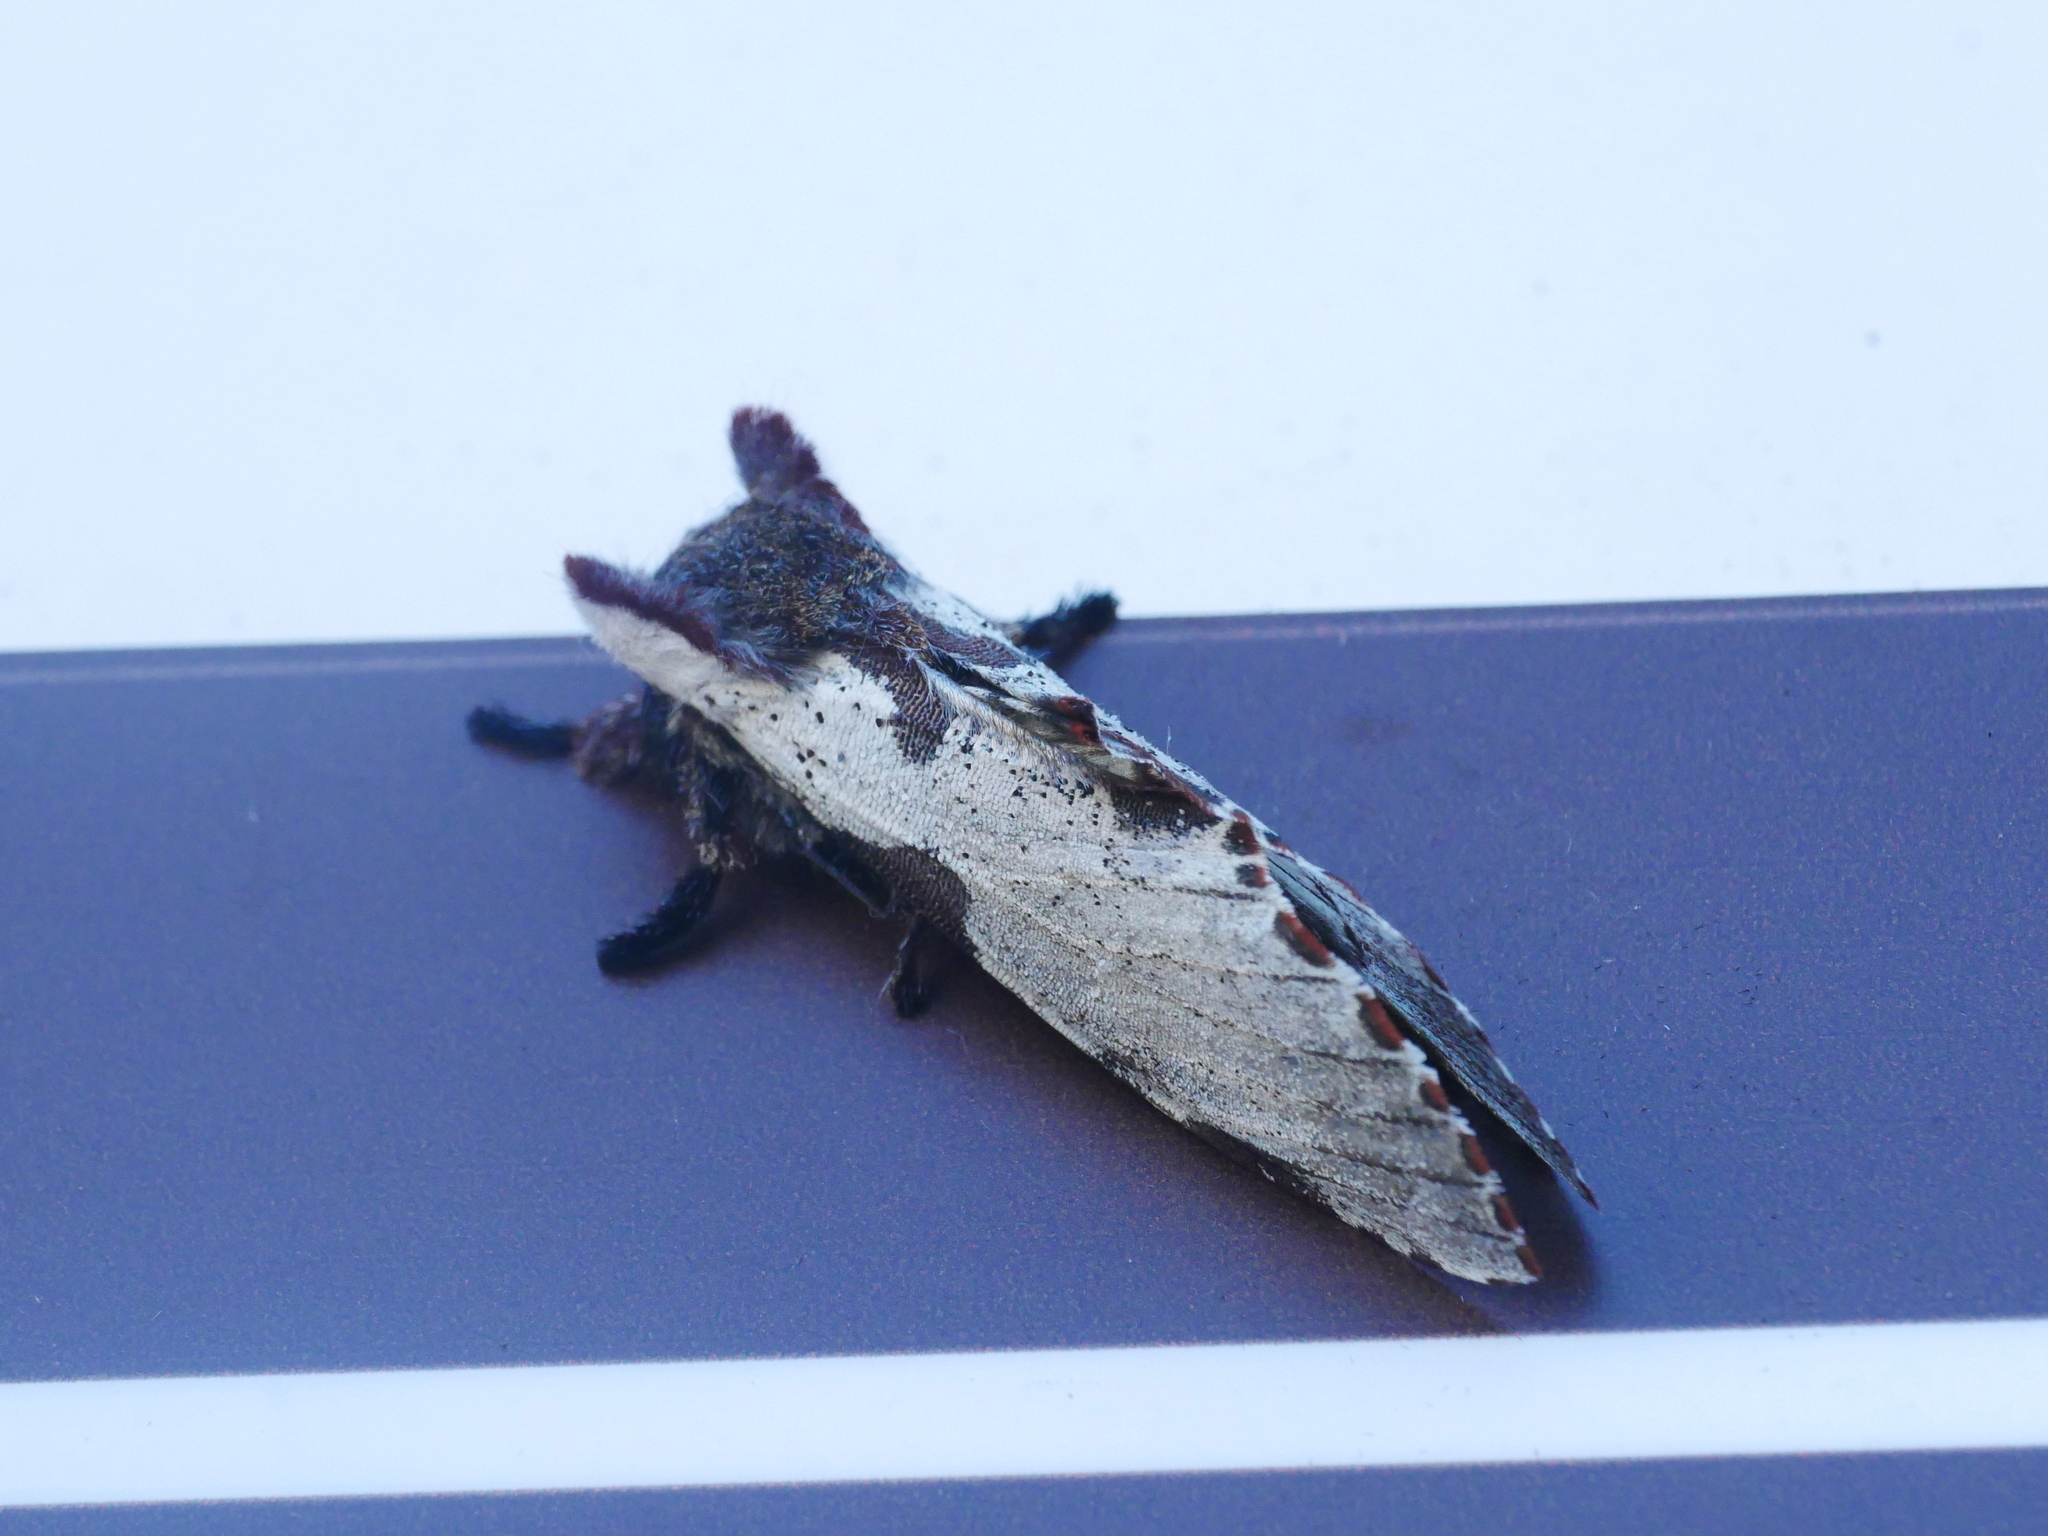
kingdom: Animalia
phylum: Arthropoda
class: Insecta
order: Lepidoptera
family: Notodontidae
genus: Harpyia
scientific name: Harpyia formosicola
